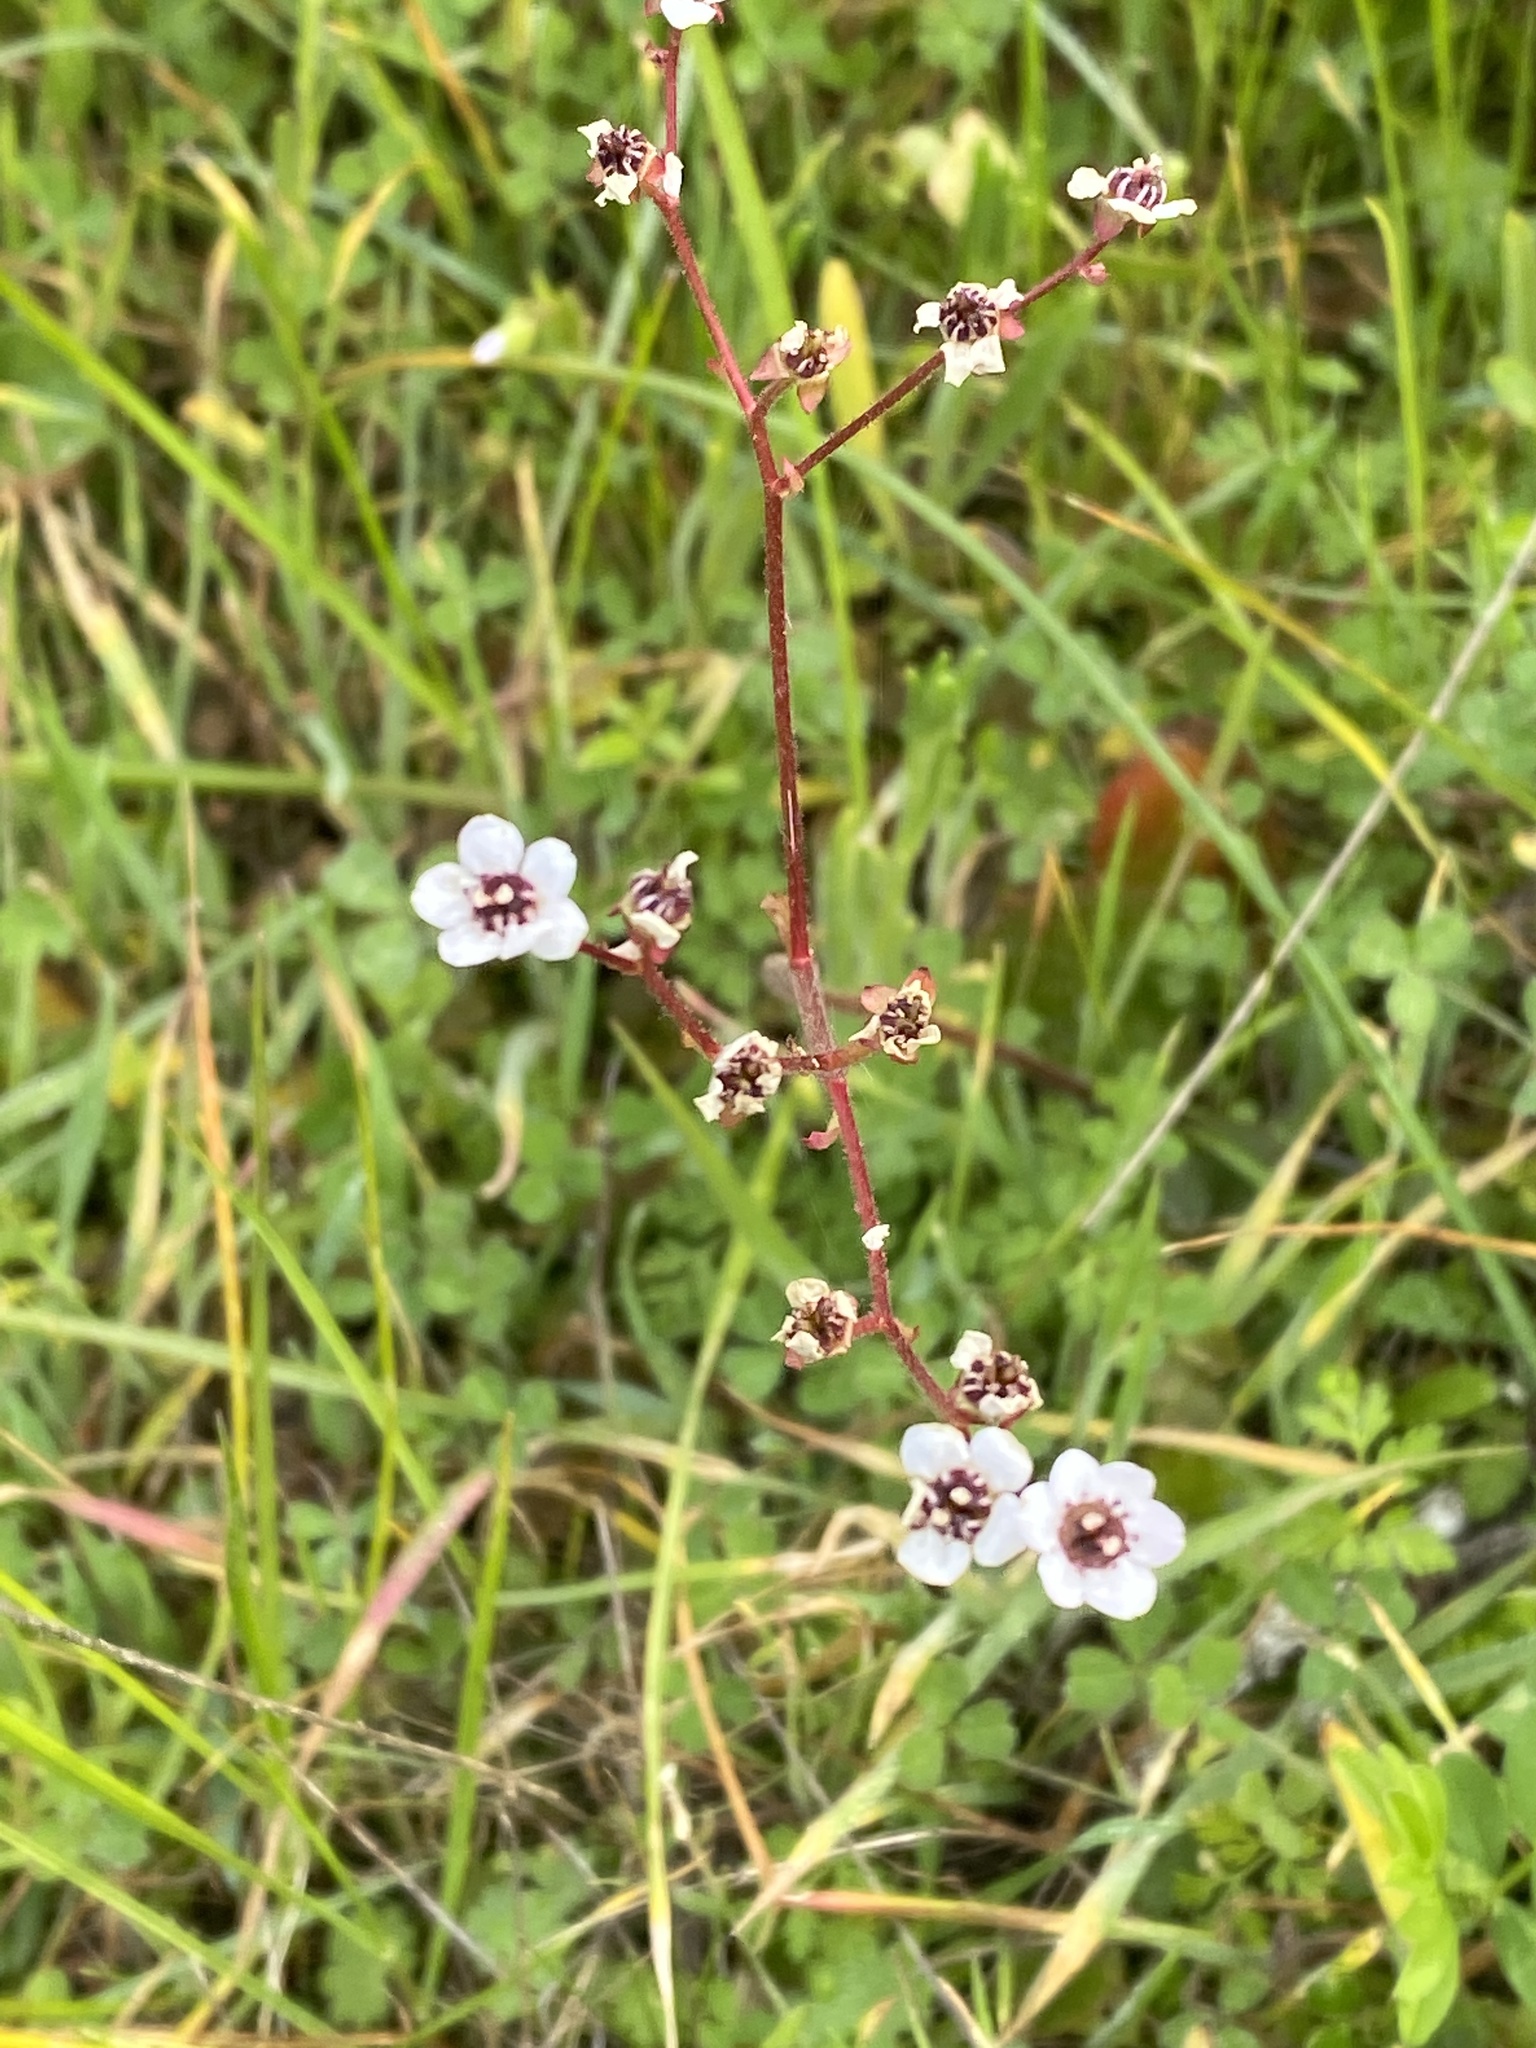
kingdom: Plantae
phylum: Tracheophyta
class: Magnoliopsida
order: Saxifragales
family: Saxifragaceae
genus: Micranthes
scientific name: Micranthes californica
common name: California saxifrage
